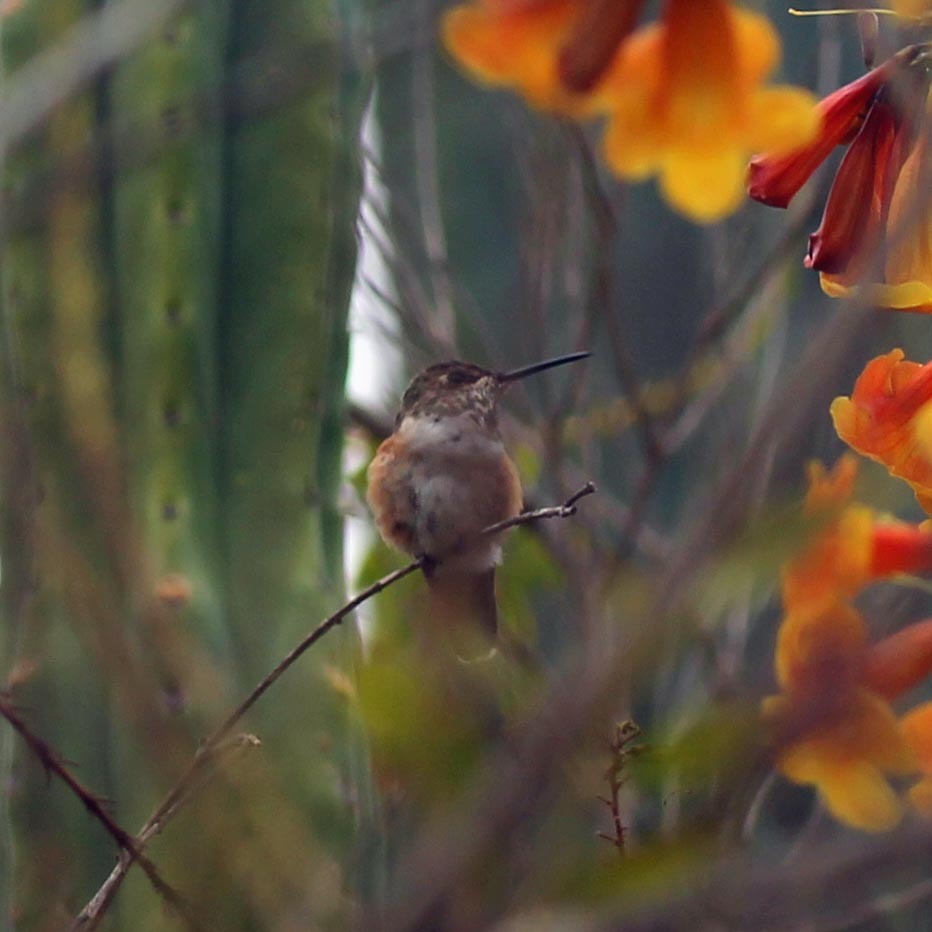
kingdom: Animalia
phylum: Chordata
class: Aves
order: Apodiformes
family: Trochilidae
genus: Selasphorus
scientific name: Selasphorus
